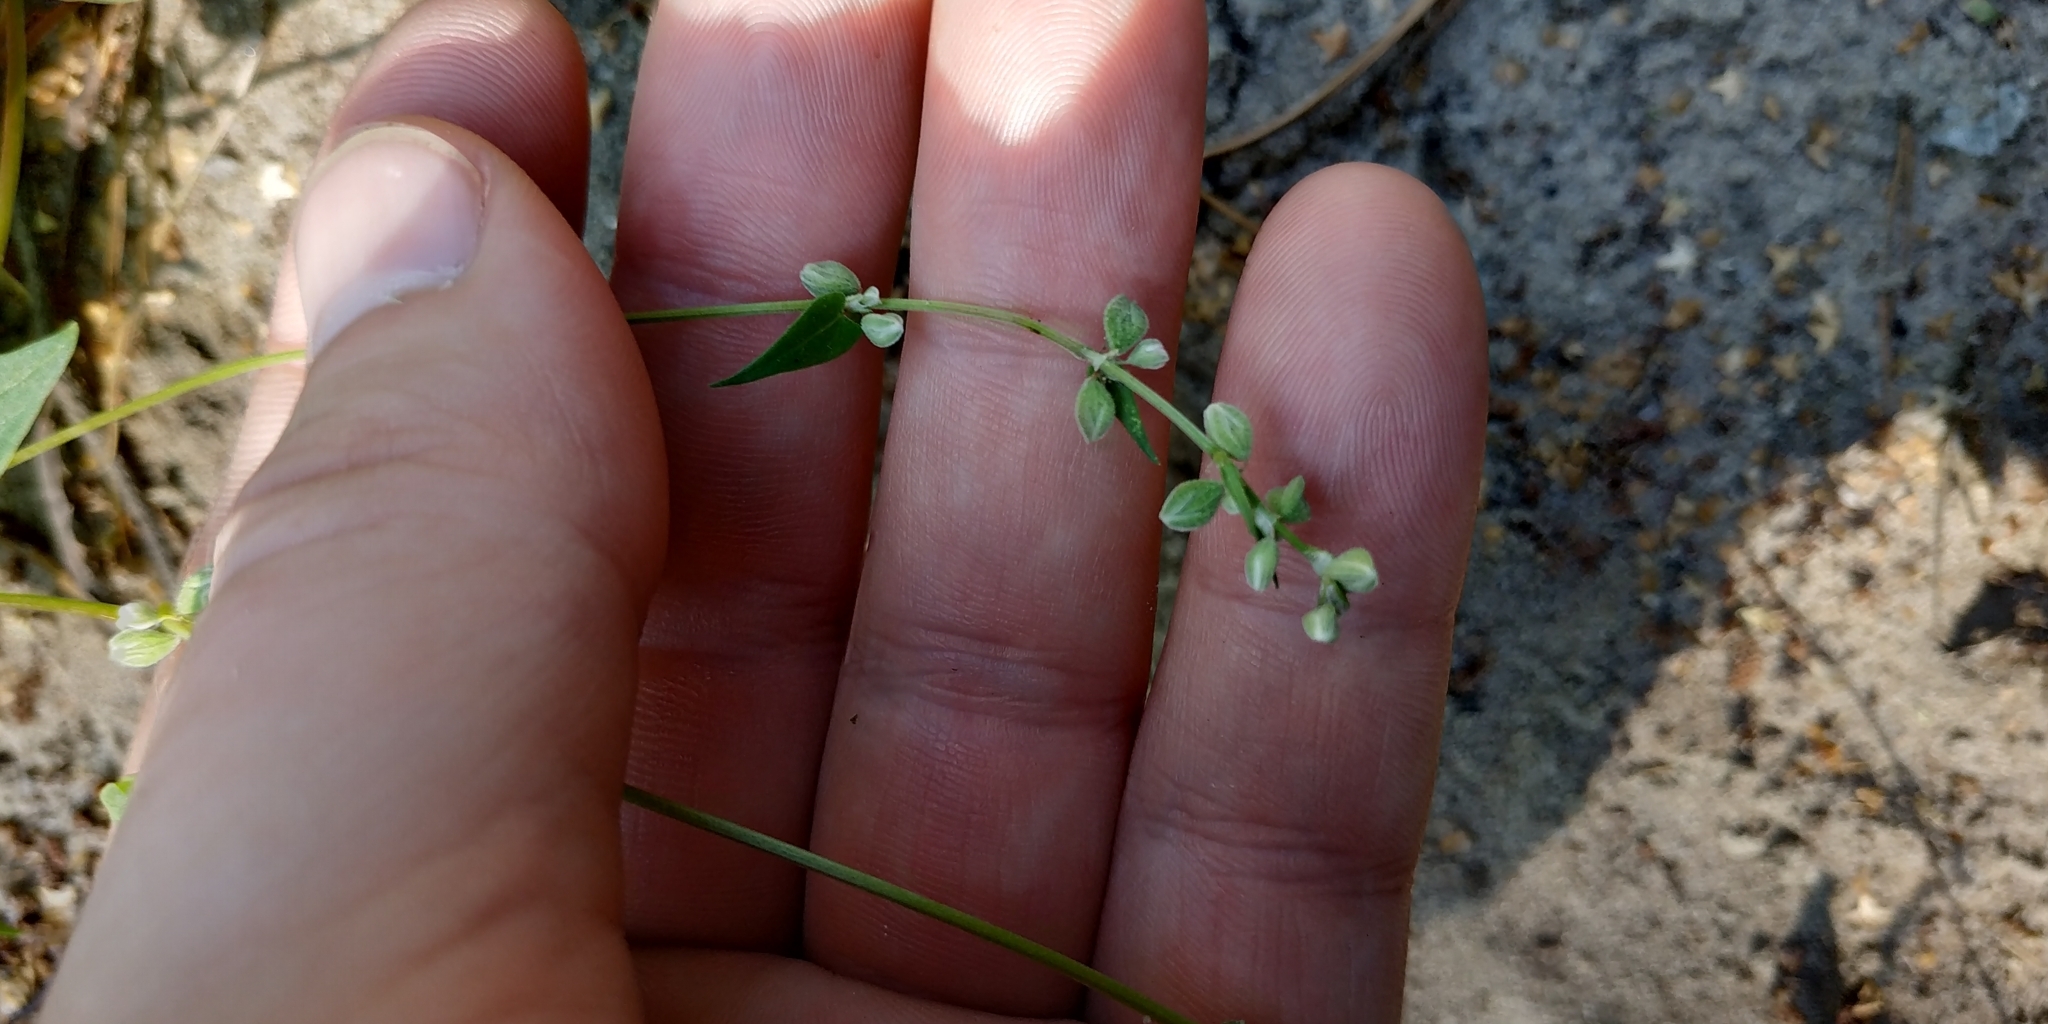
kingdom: Plantae
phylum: Tracheophyta
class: Magnoliopsida
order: Caryophyllales
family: Polygonaceae
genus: Fallopia
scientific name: Fallopia convolvulus
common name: Black bindweed
